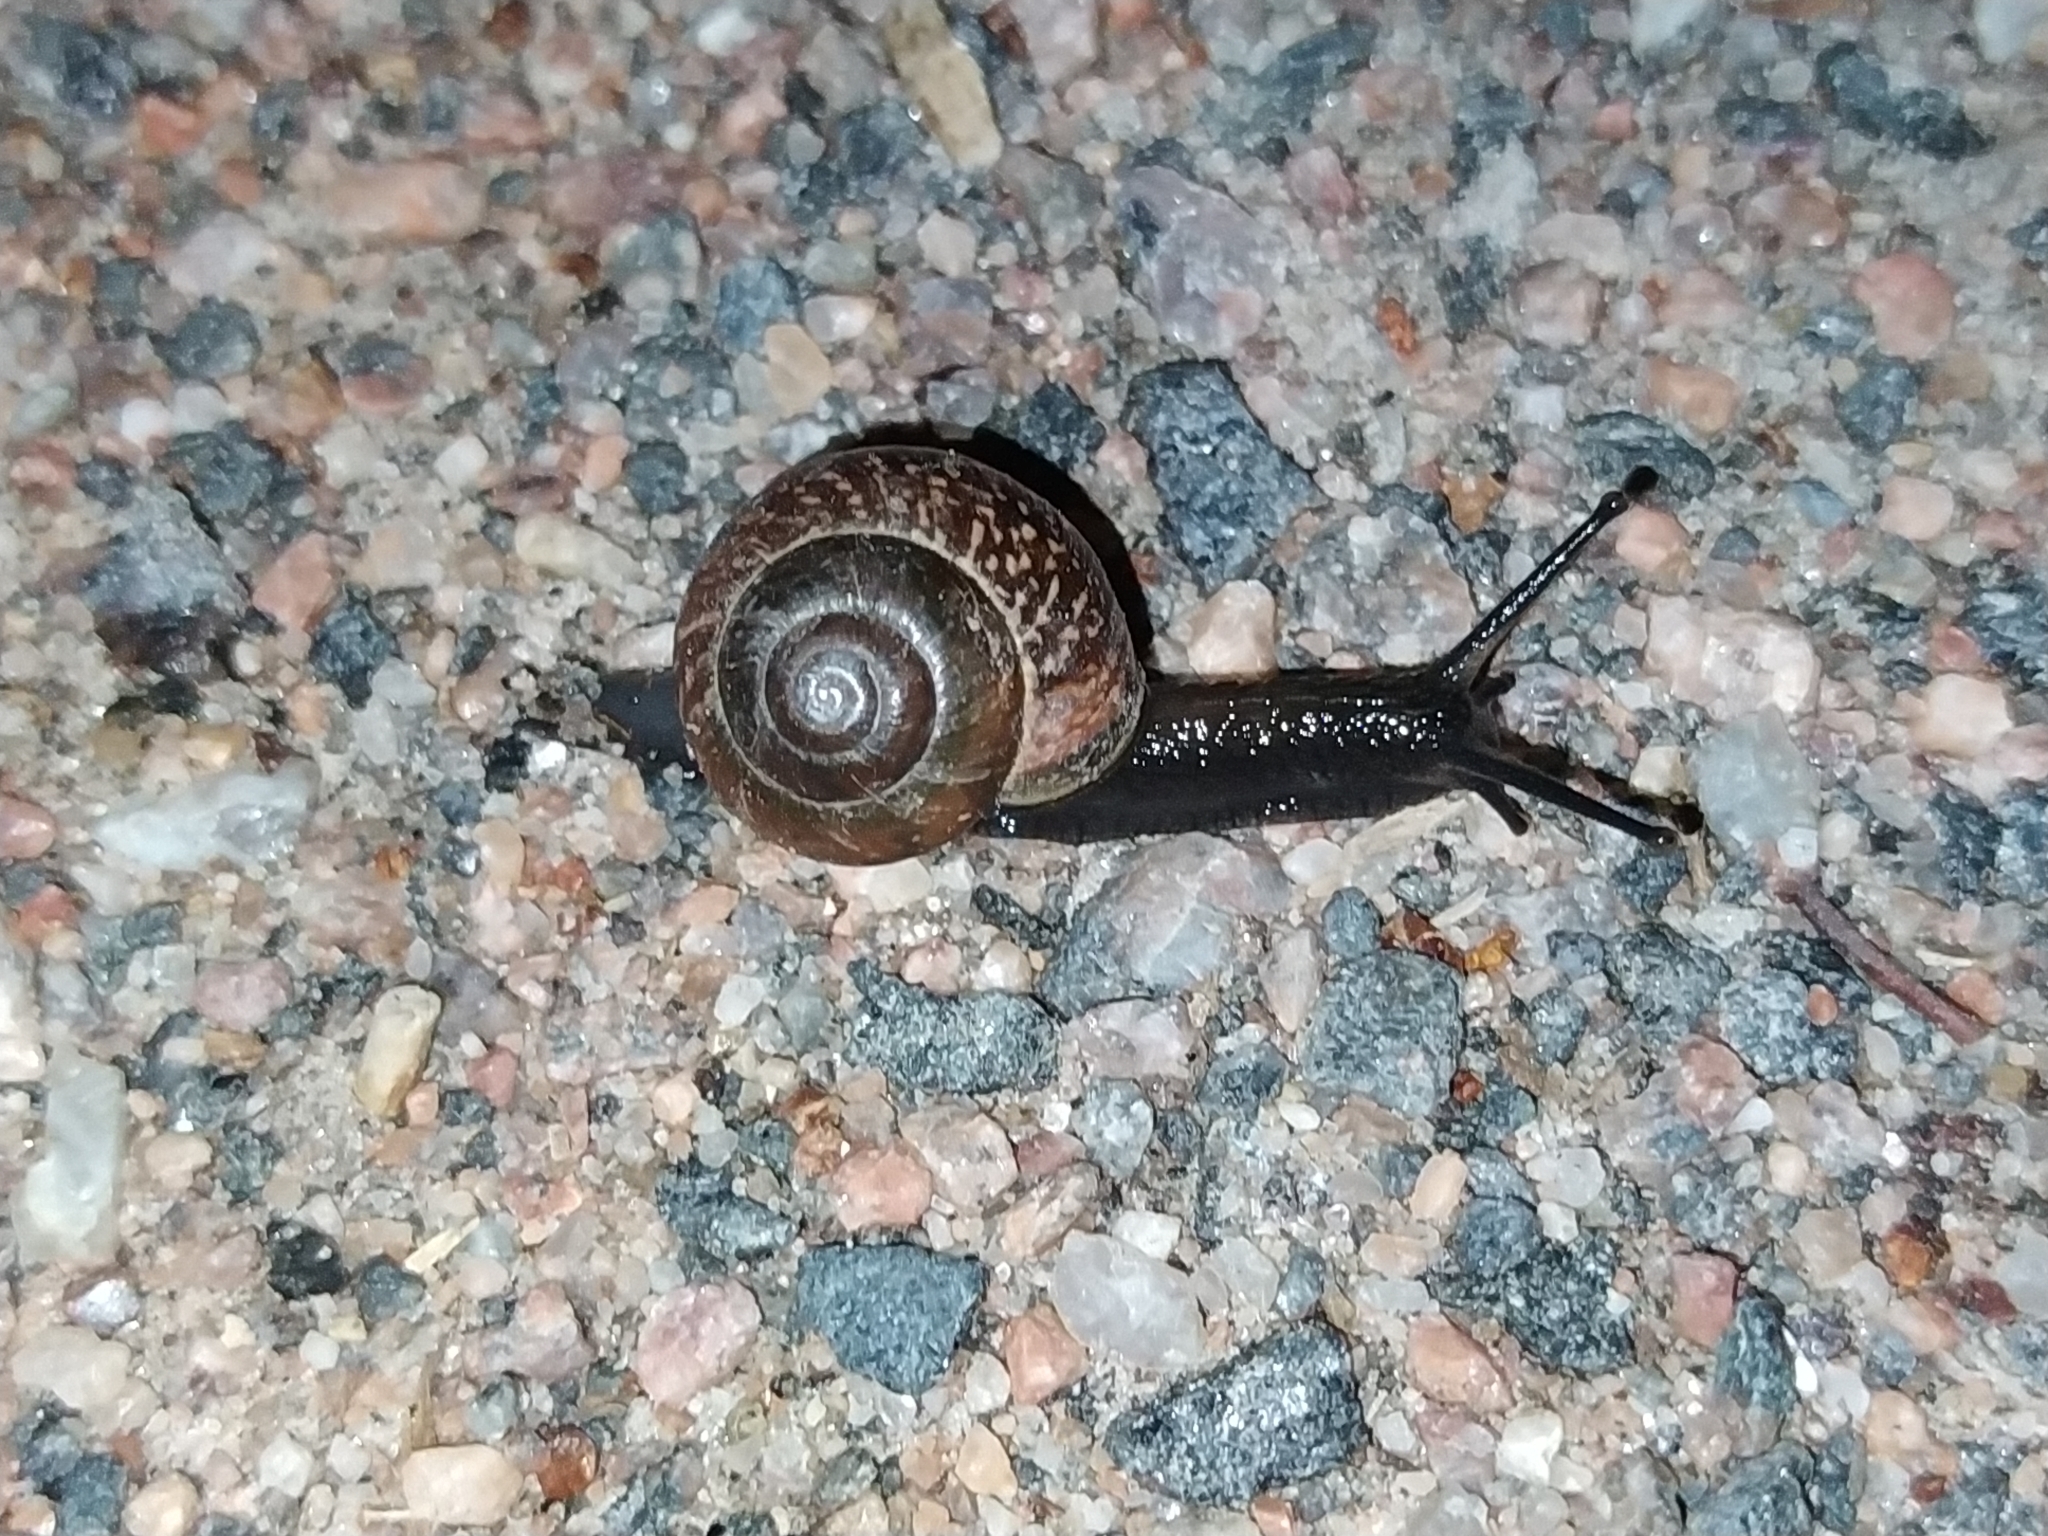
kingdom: Animalia
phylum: Mollusca
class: Gastropoda
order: Stylommatophora
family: Helicidae
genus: Arianta
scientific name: Arianta arbustorum
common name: Copse snail
